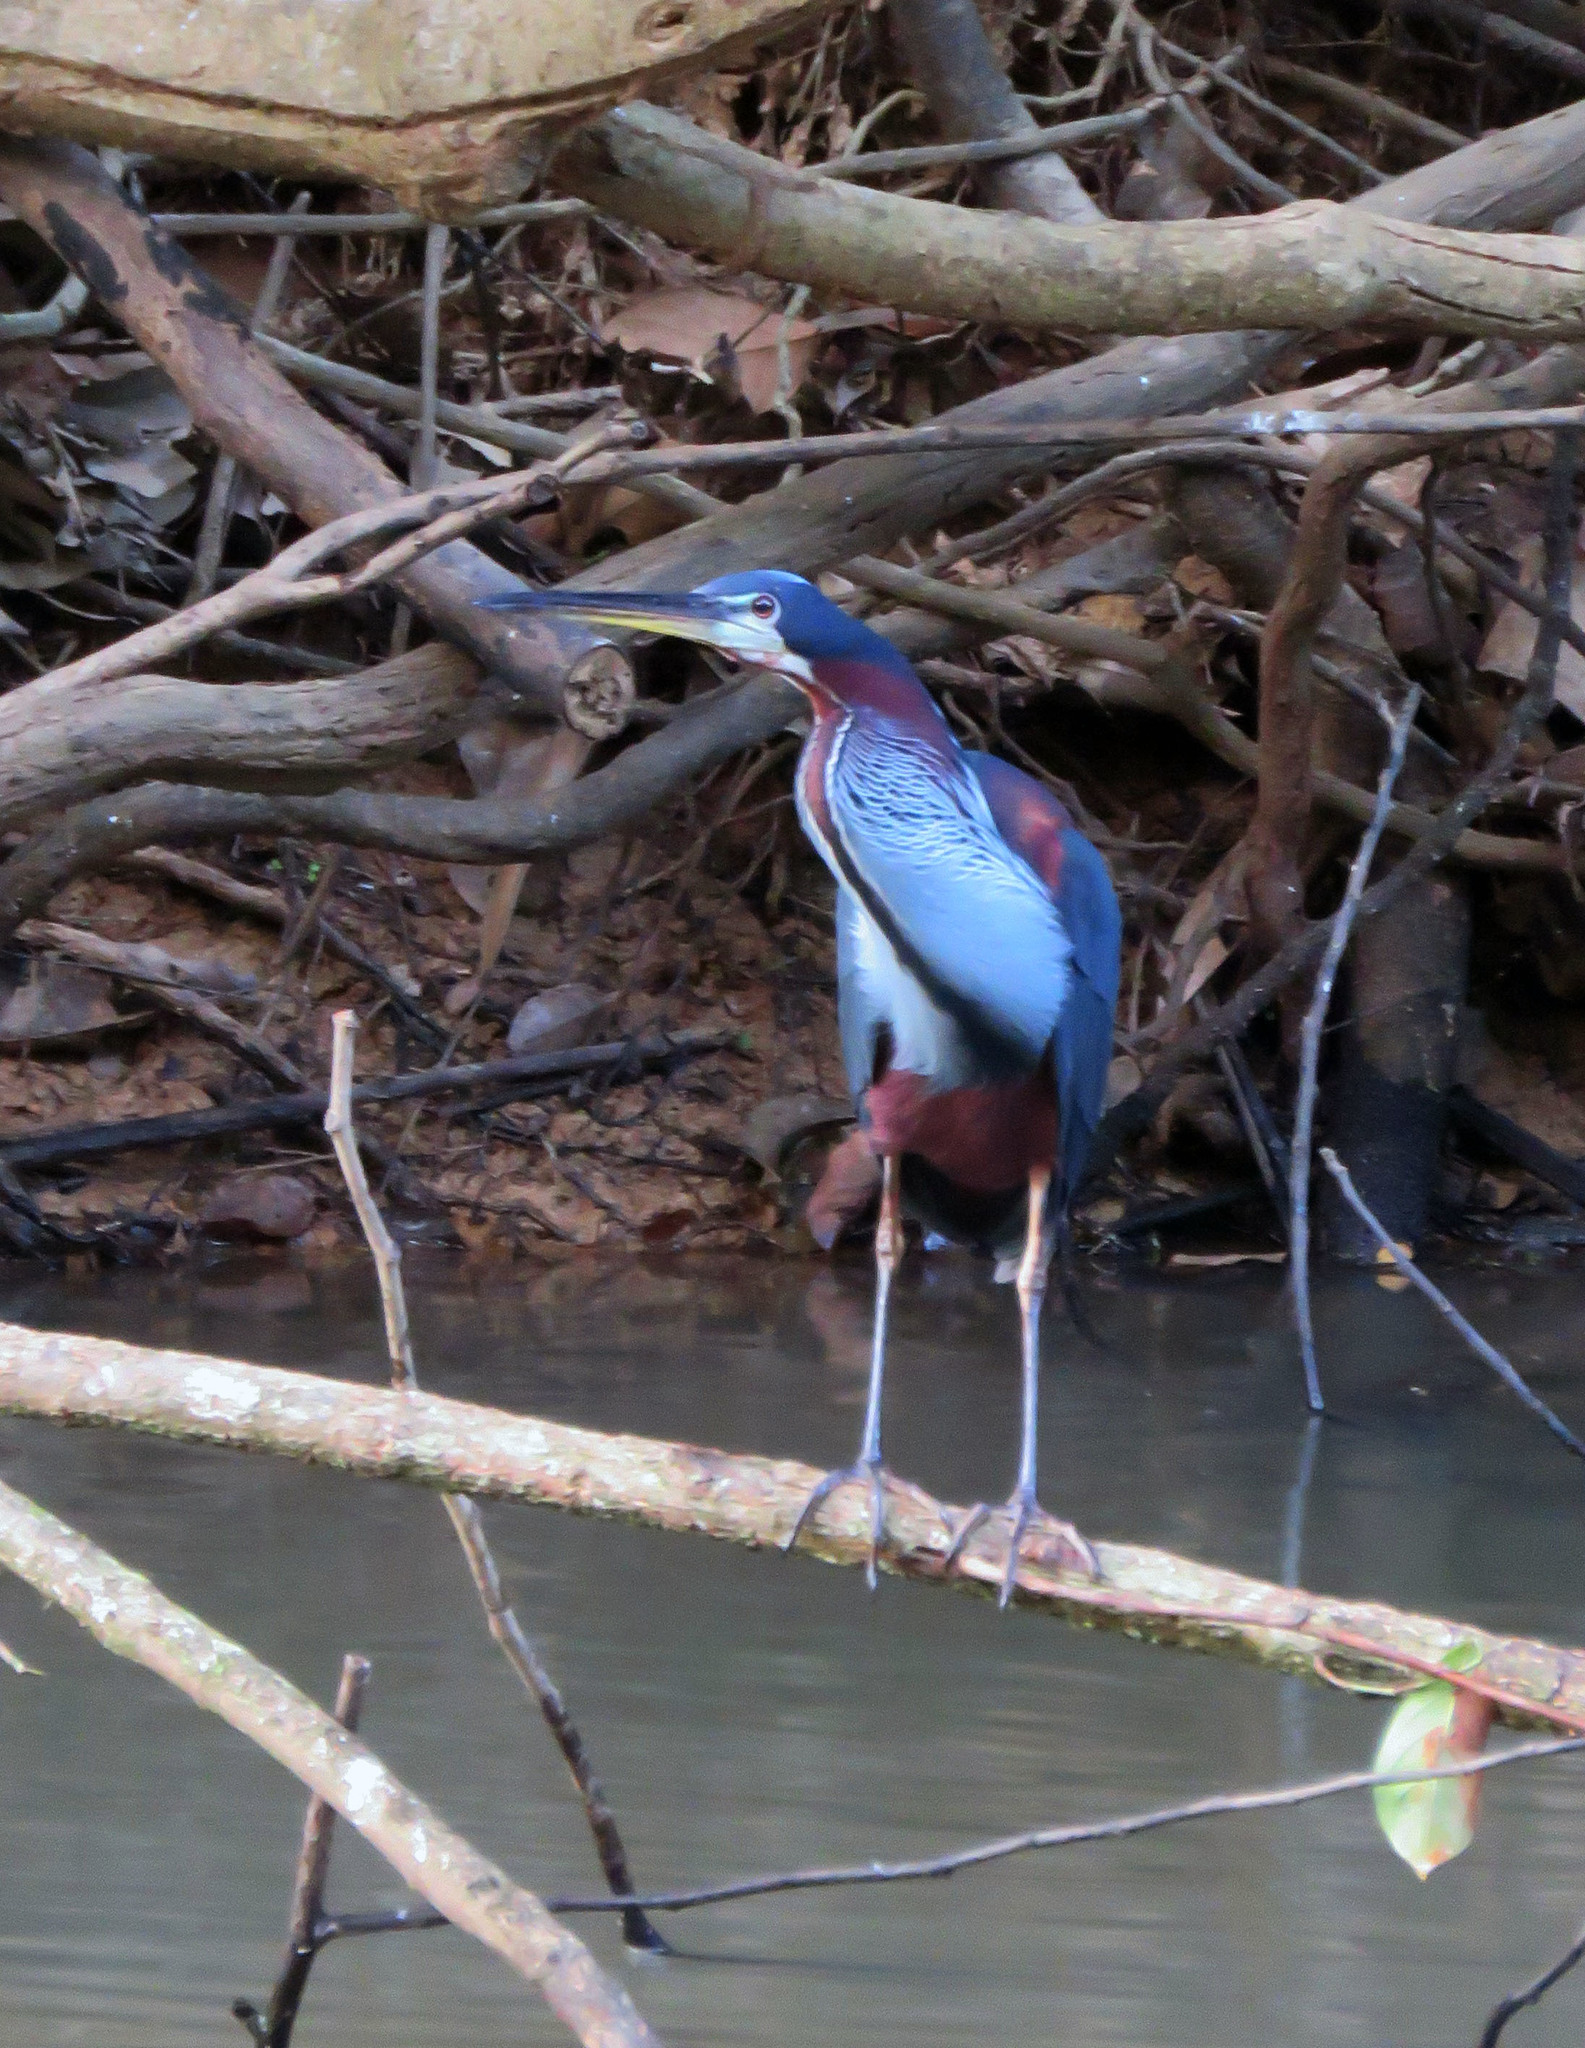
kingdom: Animalia
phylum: Chordata
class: Aves
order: Pelecaniformes
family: Ardeidae
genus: Agamia
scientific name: Agamia agami
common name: Agami heron
